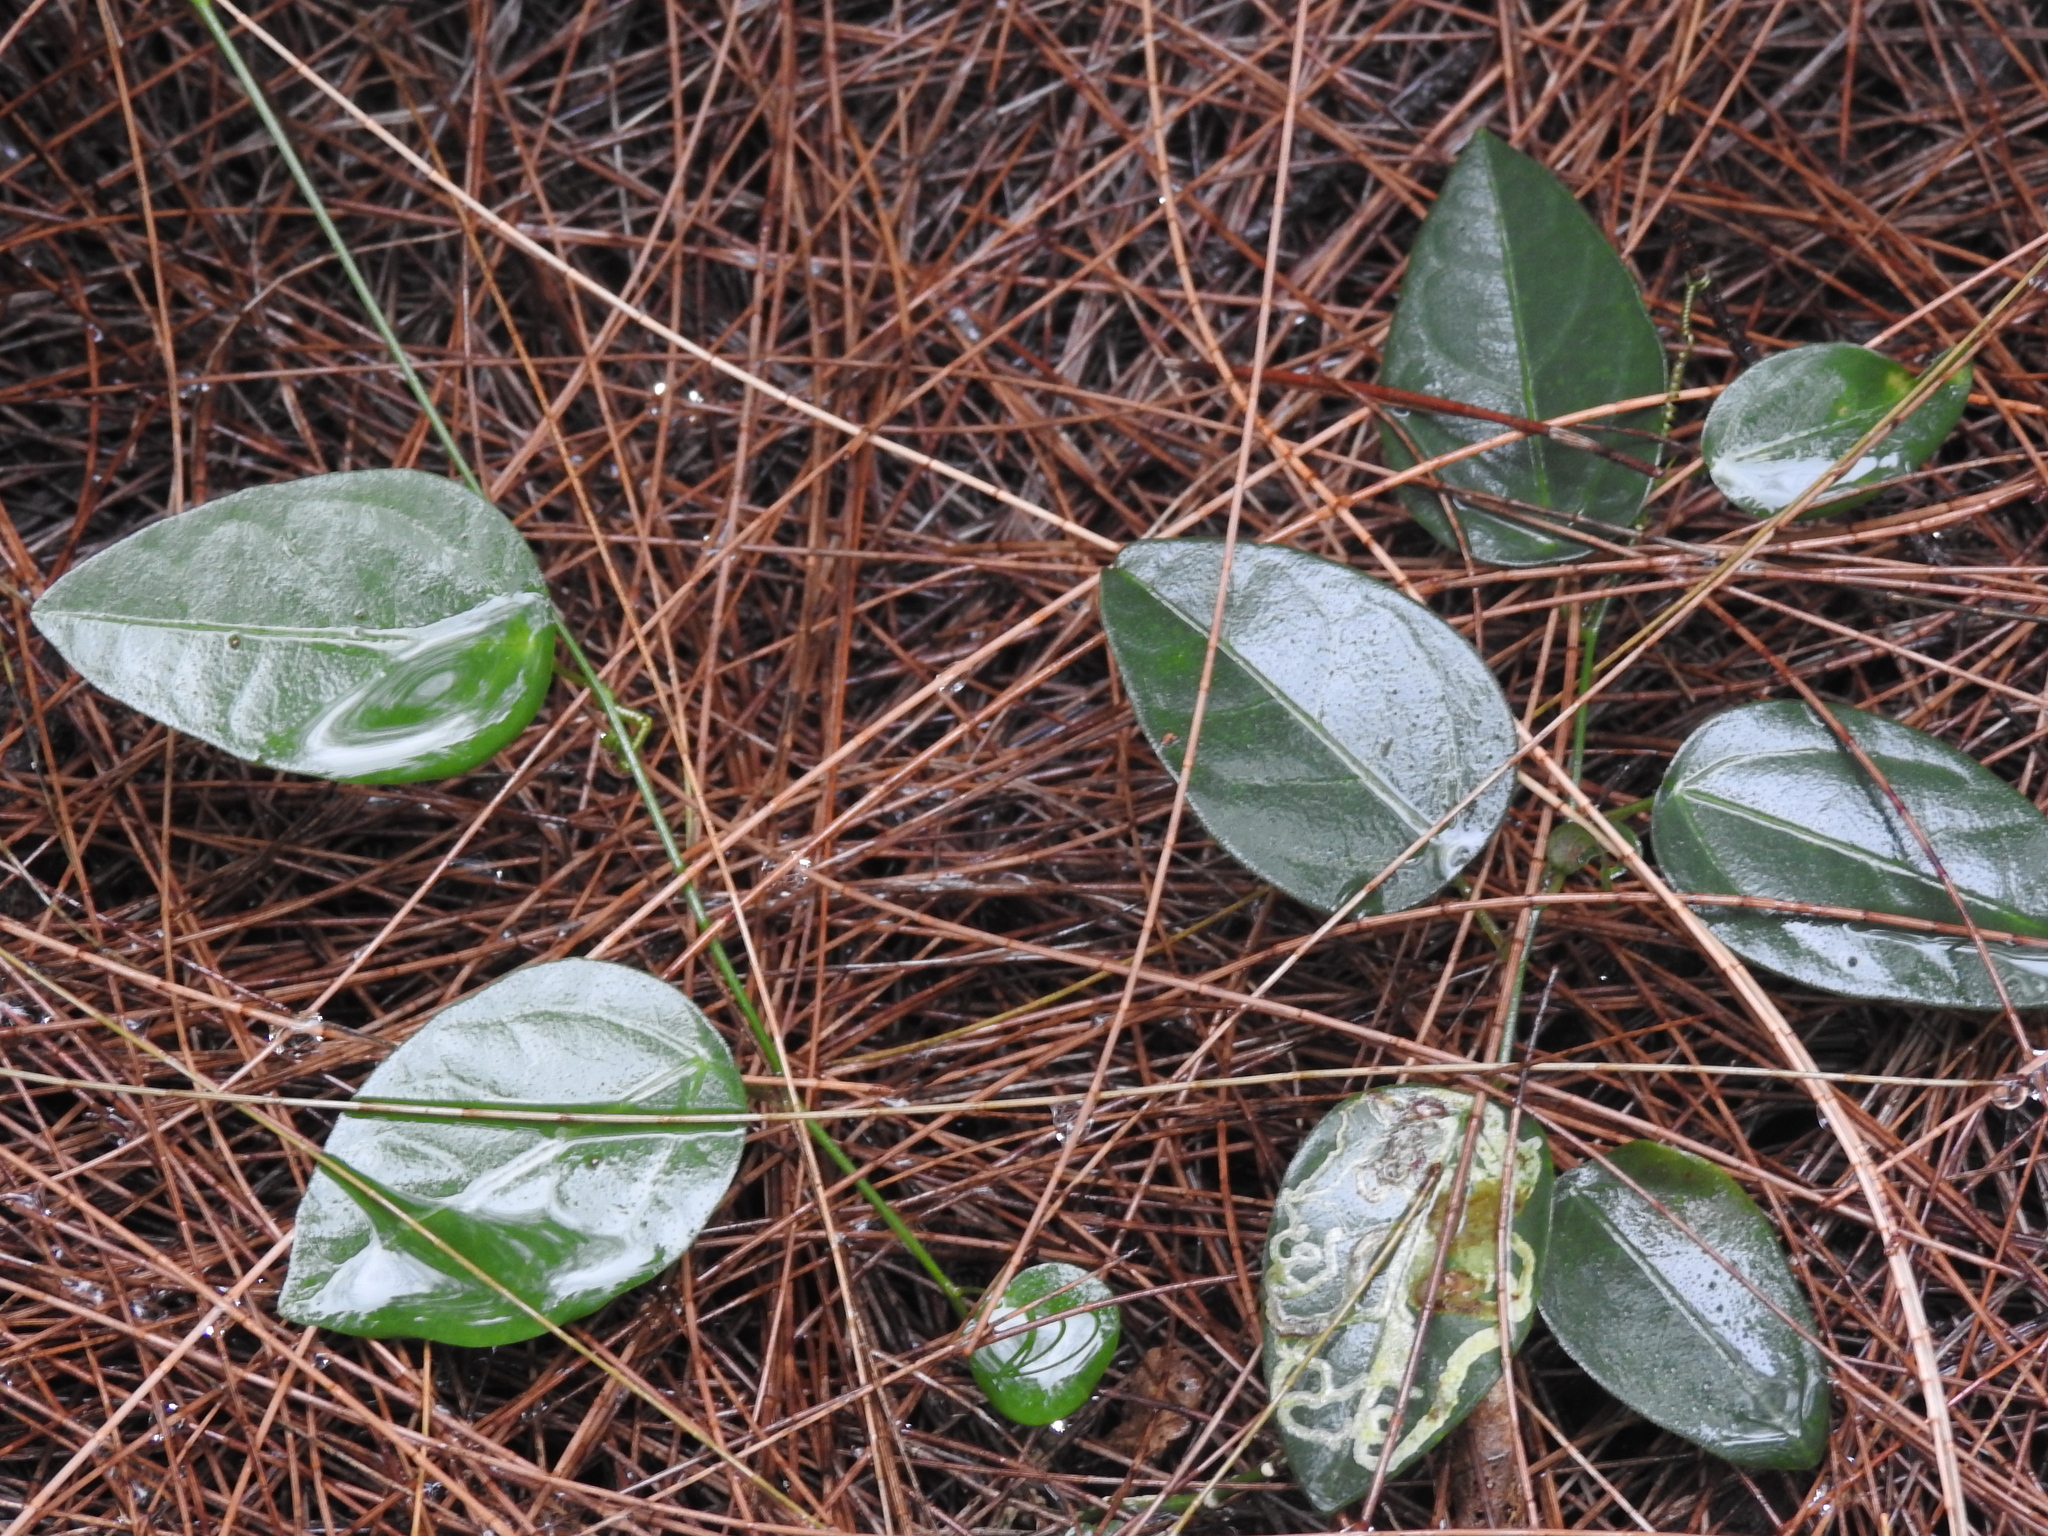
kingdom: Plantae
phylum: Tracheophyta
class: Magnoliopsida
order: Malpighiales
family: Passifloraceae
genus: Passiflora
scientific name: Passiflora pallida
